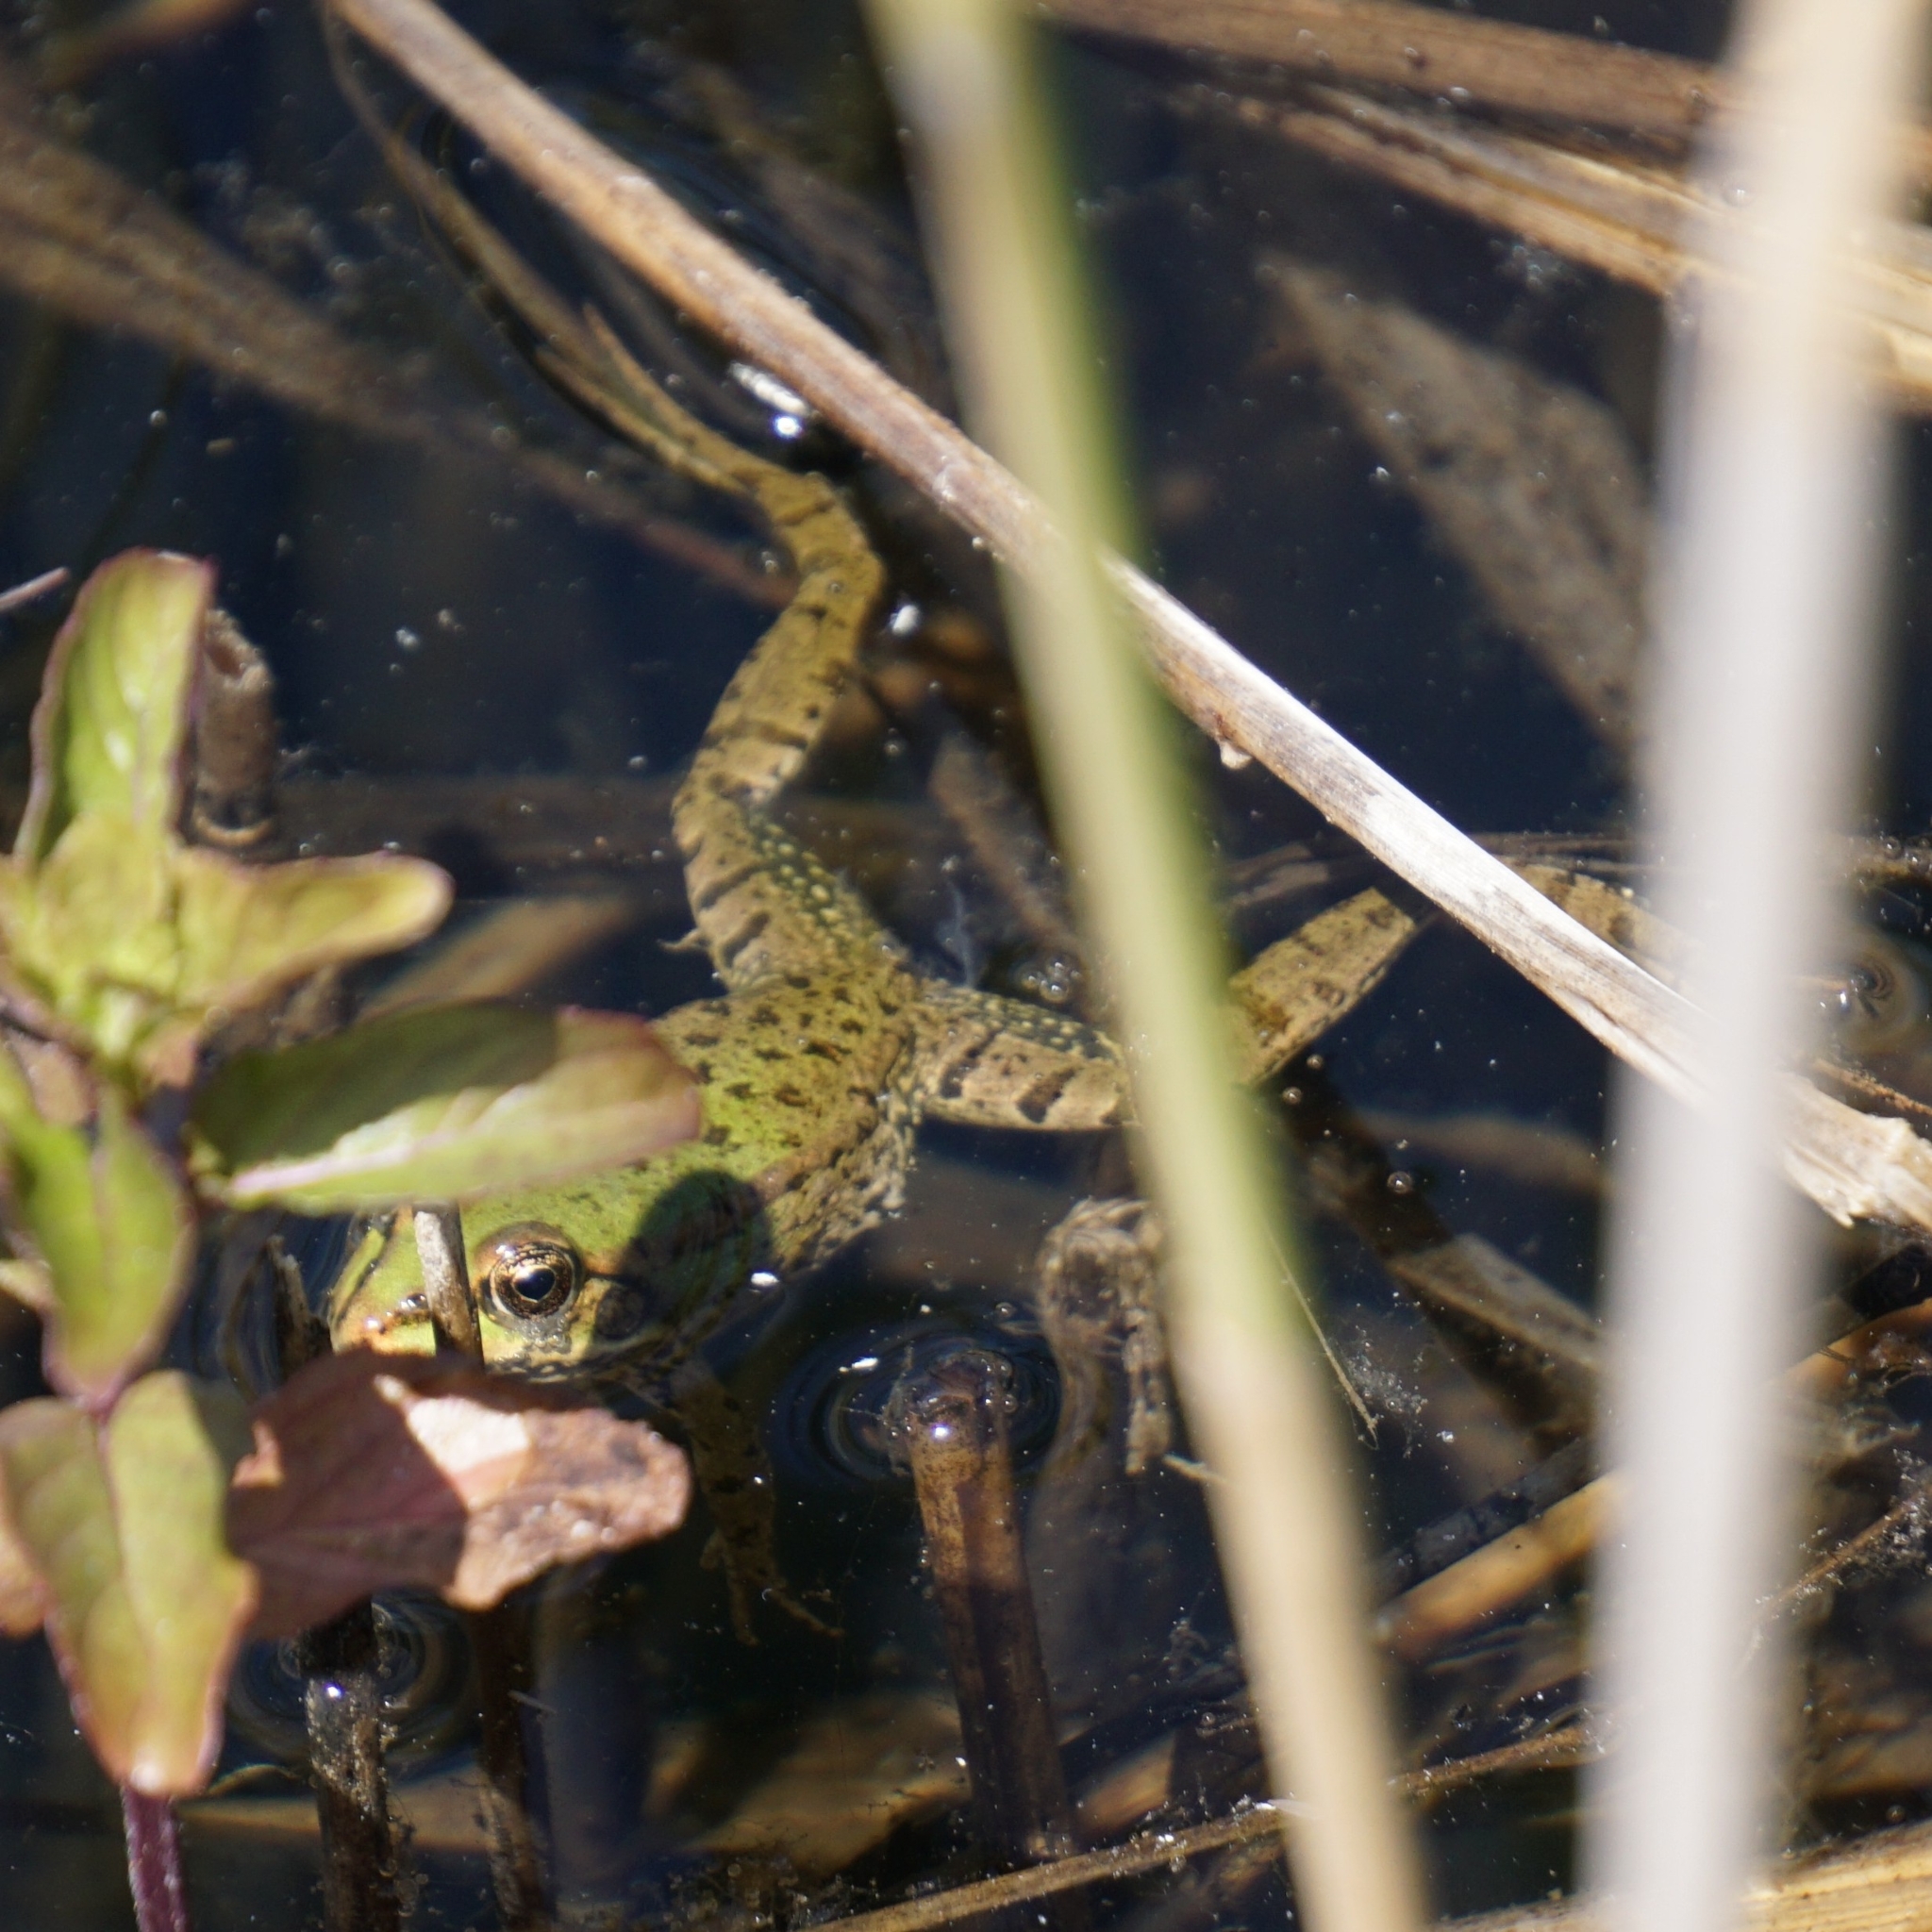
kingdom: Animalia
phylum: Chordata
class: Amphibia
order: Anura
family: Ranidae
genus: Pelophylax
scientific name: Pelophylax
